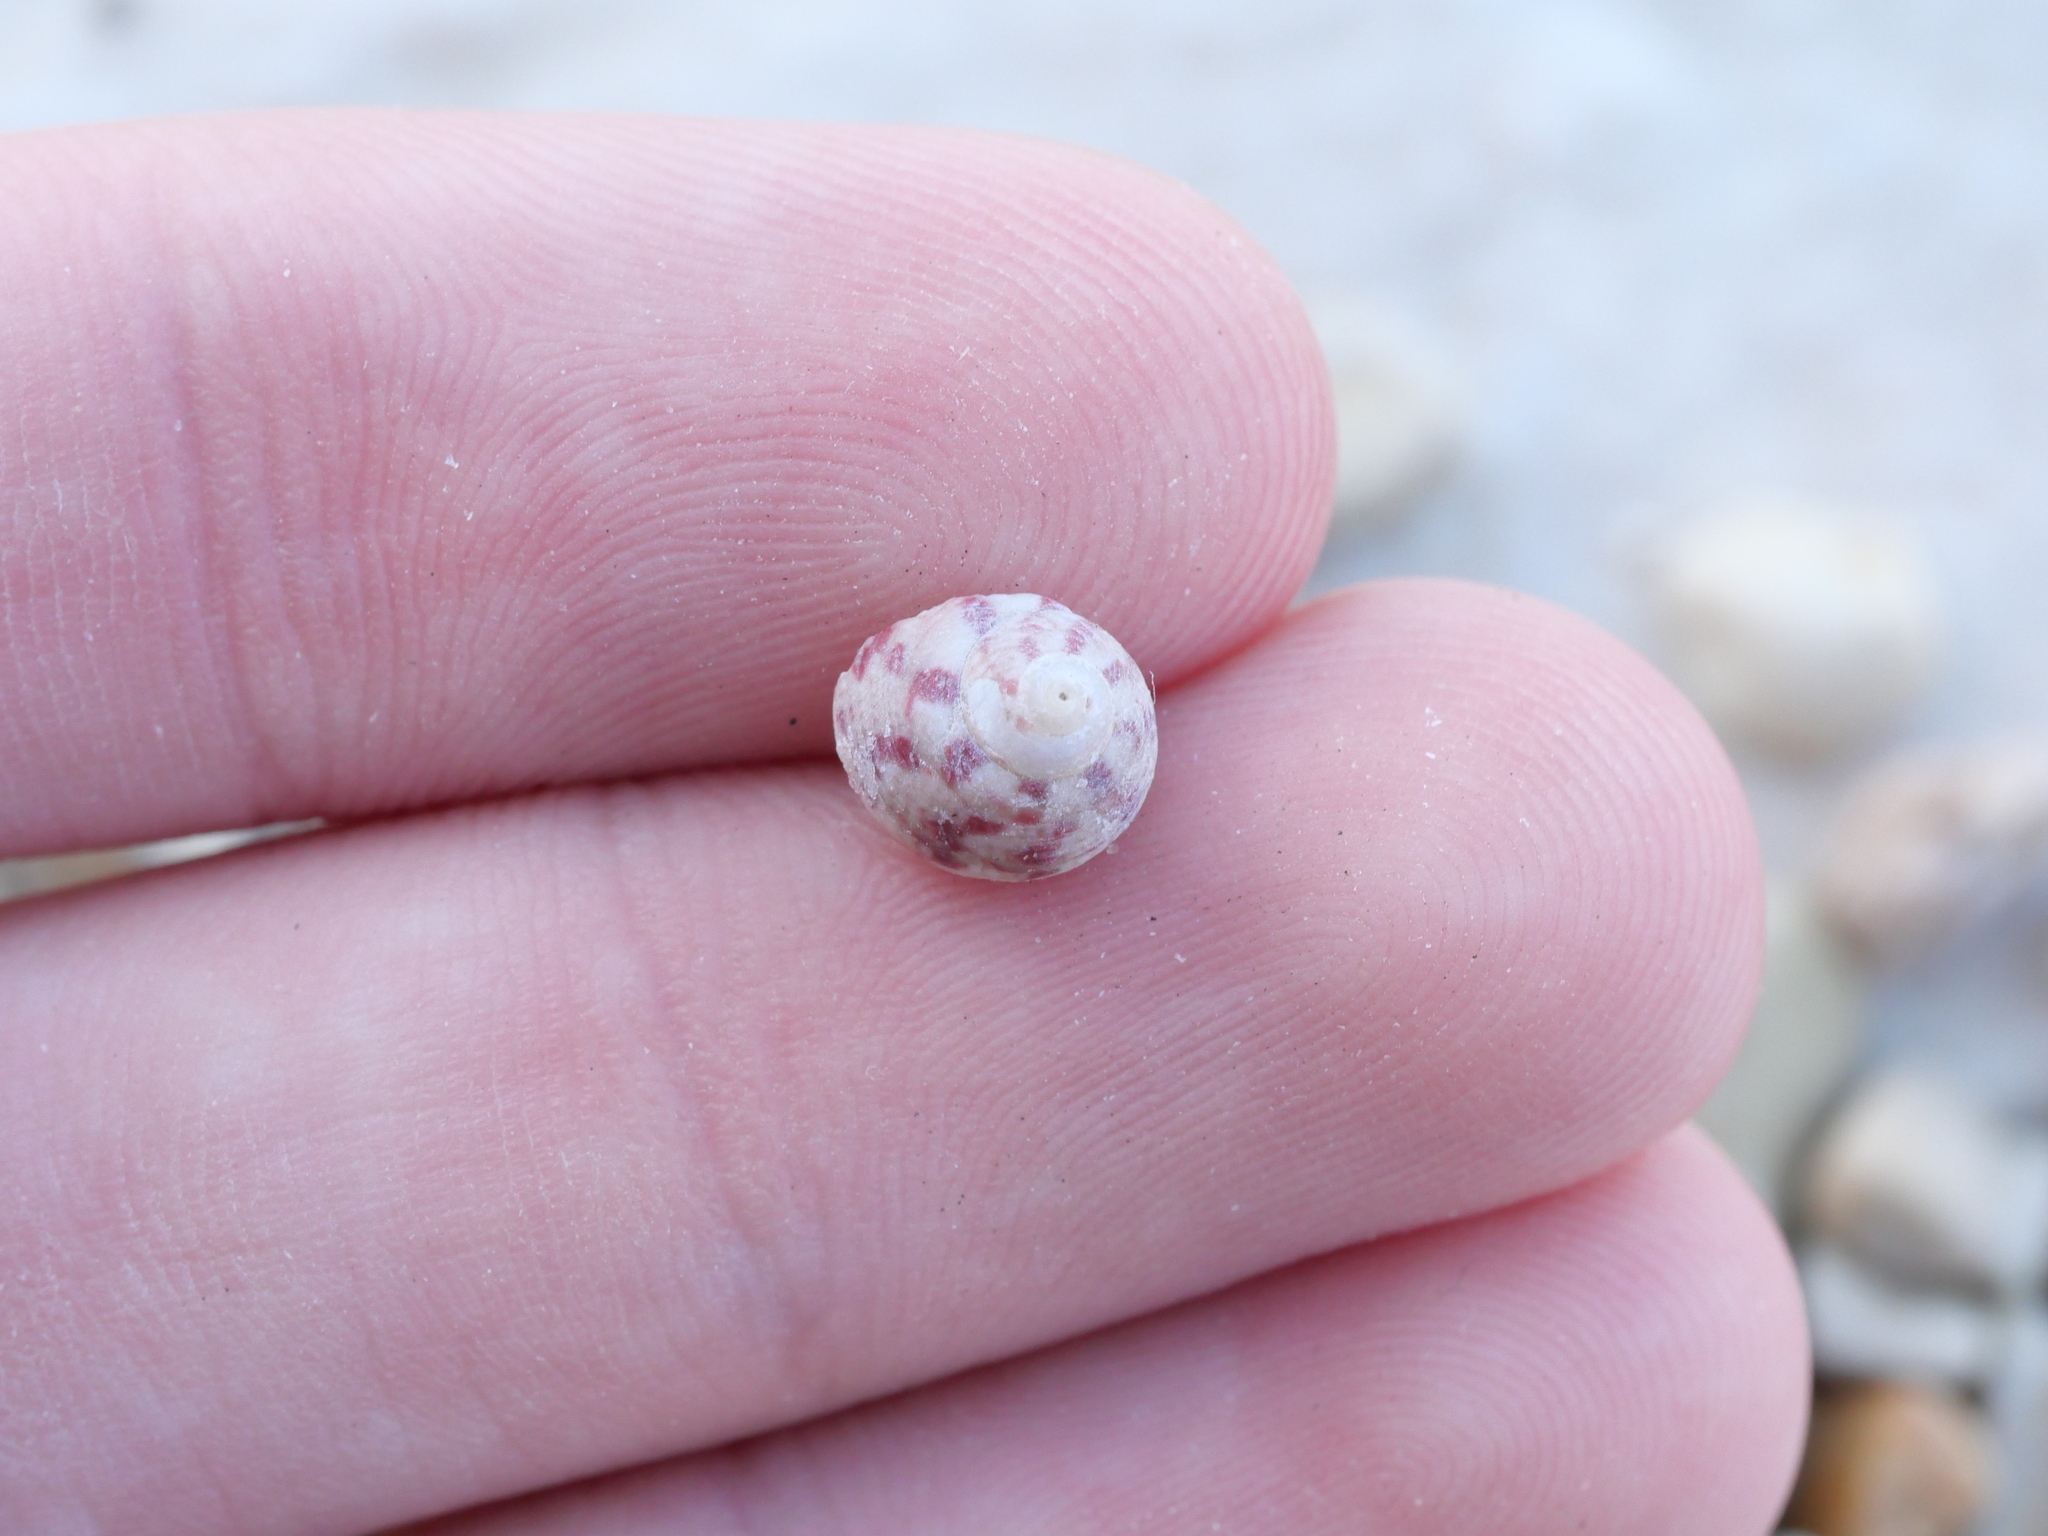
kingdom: Animalia
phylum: Mollusca
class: Gastropoda
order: Trochida
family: Trochidae
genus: Steromphala
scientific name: Steromphala rarilineata
